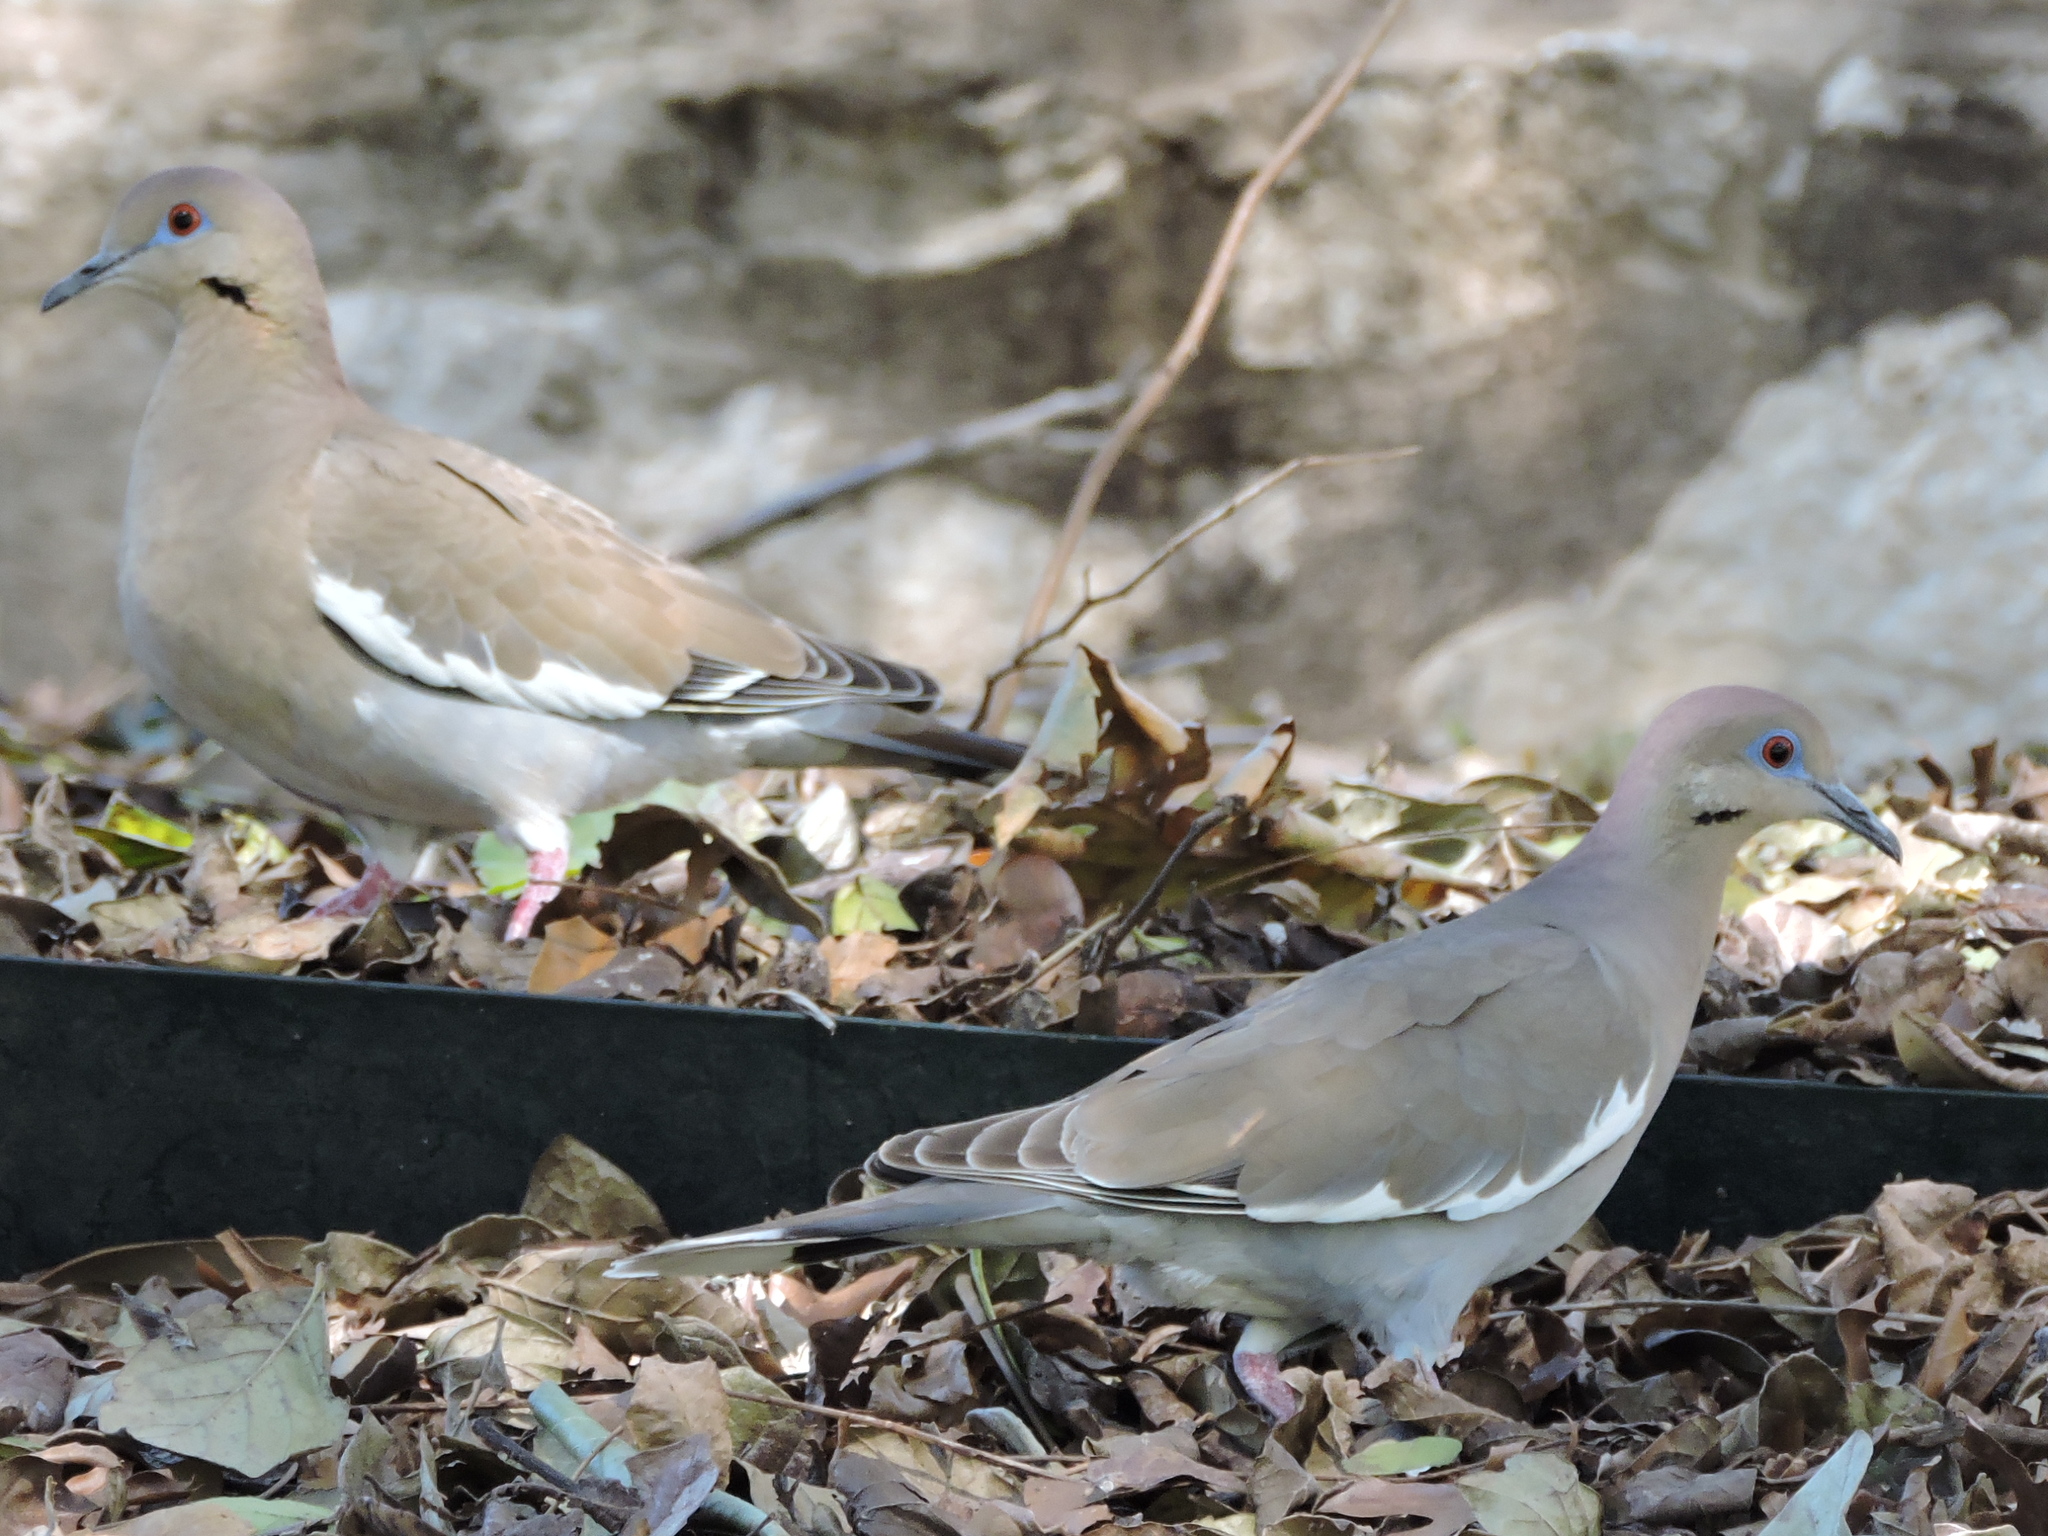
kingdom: Animalia
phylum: Chordata
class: Aves
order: Columbiformes
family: Columbidae
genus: Zenaida
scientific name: Zenaida asiatica
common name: White-winged dove
